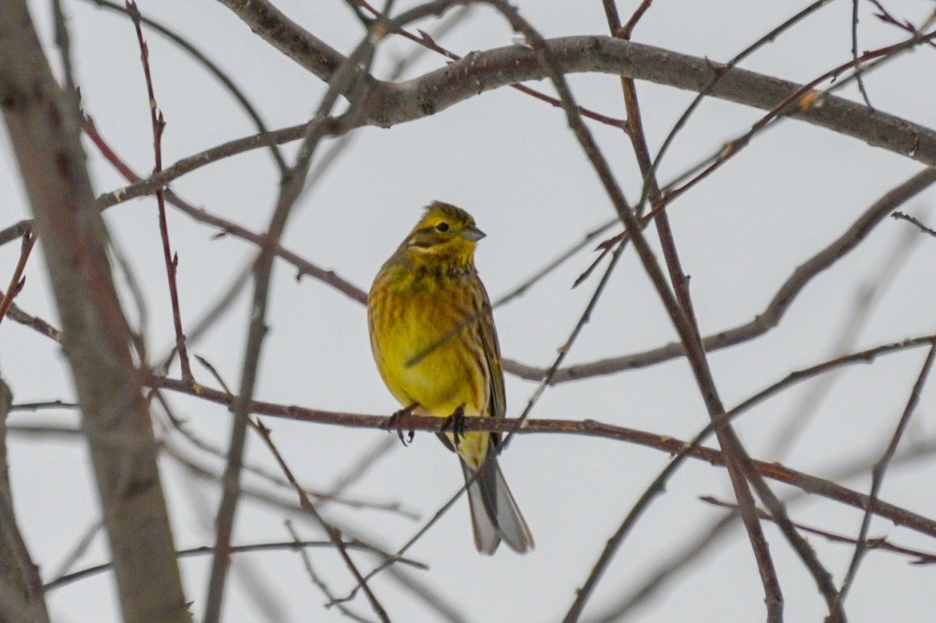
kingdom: Animalia
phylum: Chordata
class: Aves
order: Passeriformes
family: Emberizidae
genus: Emberiza
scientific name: Emberiza citrinella
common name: Yellowhammer
